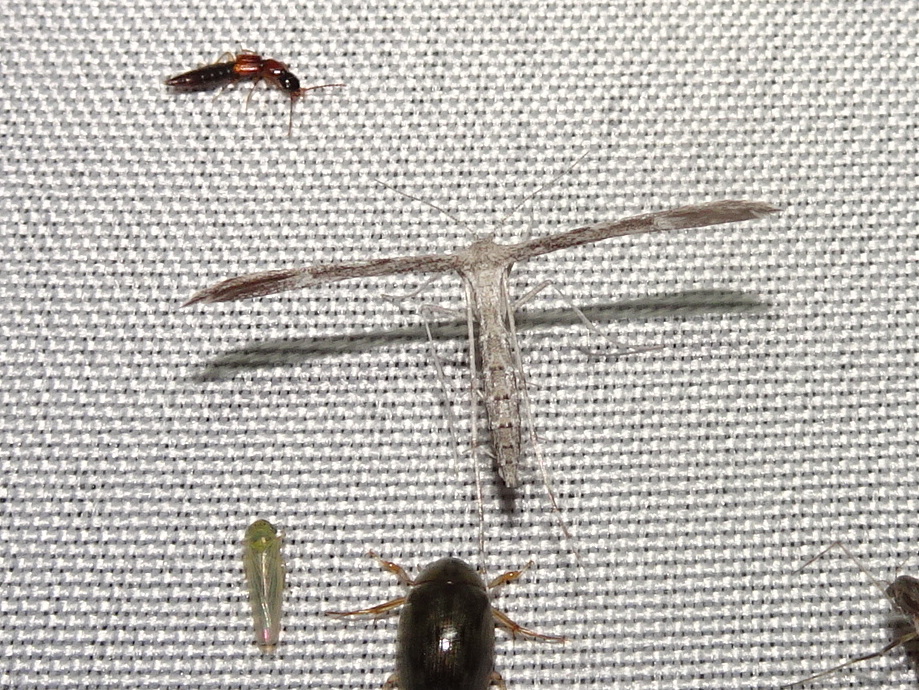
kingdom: Animalia
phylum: Arthropoda
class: Insecta
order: Lepidoptera
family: Pterophoridae
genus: Hellinsia
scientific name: Hellinsia inquinatus
